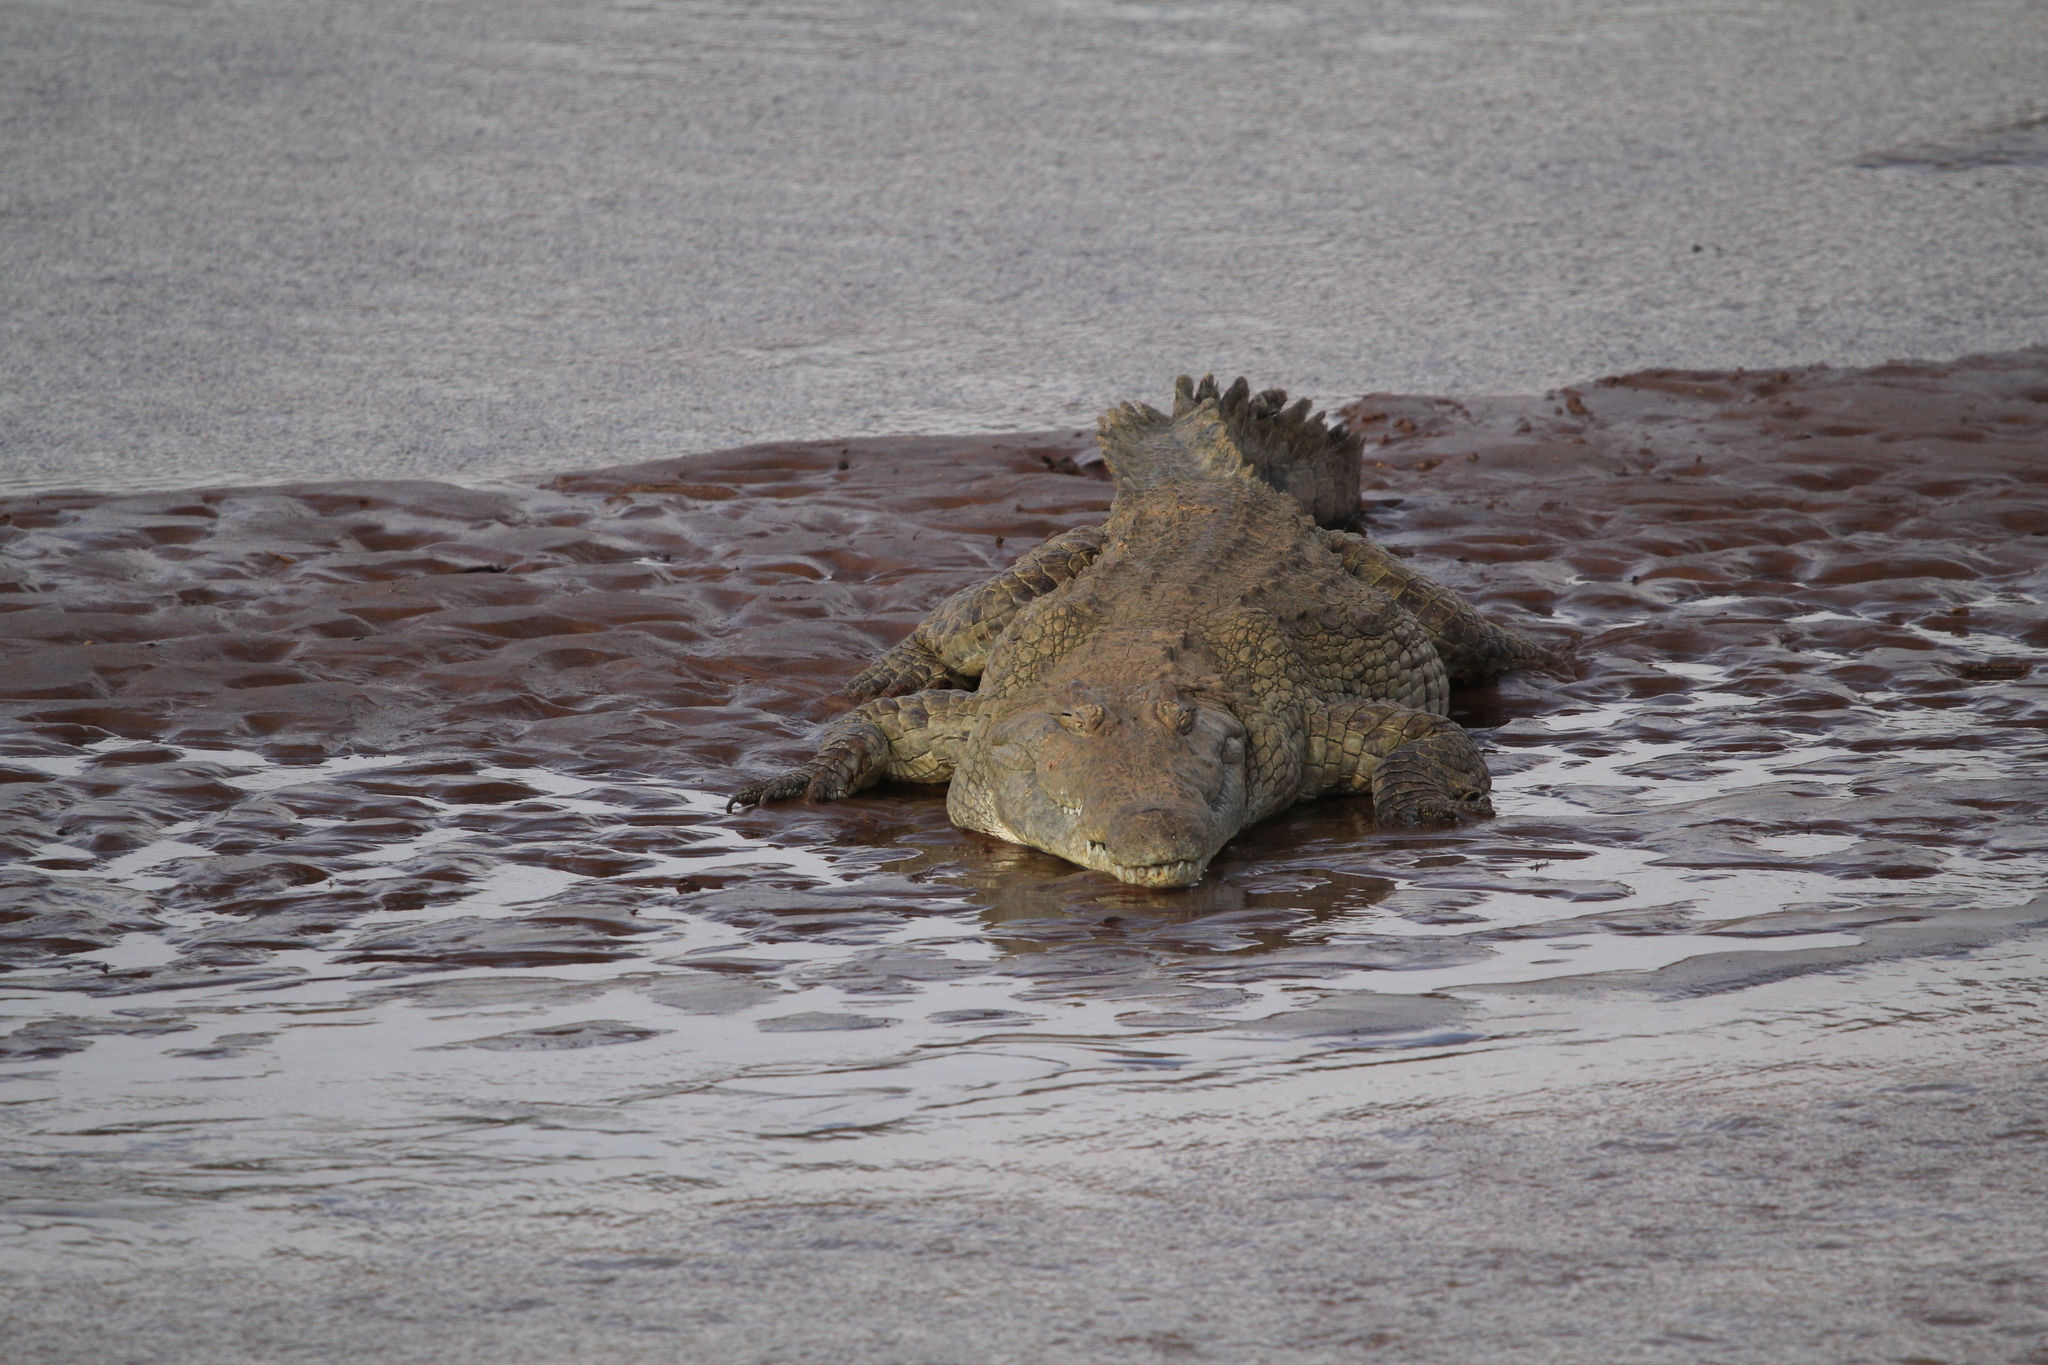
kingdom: Animalia
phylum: Chordata
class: Crocodylia
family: Crocodylidae
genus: Crocodylus
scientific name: Crocodylus niloticus
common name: Nile crocodile
